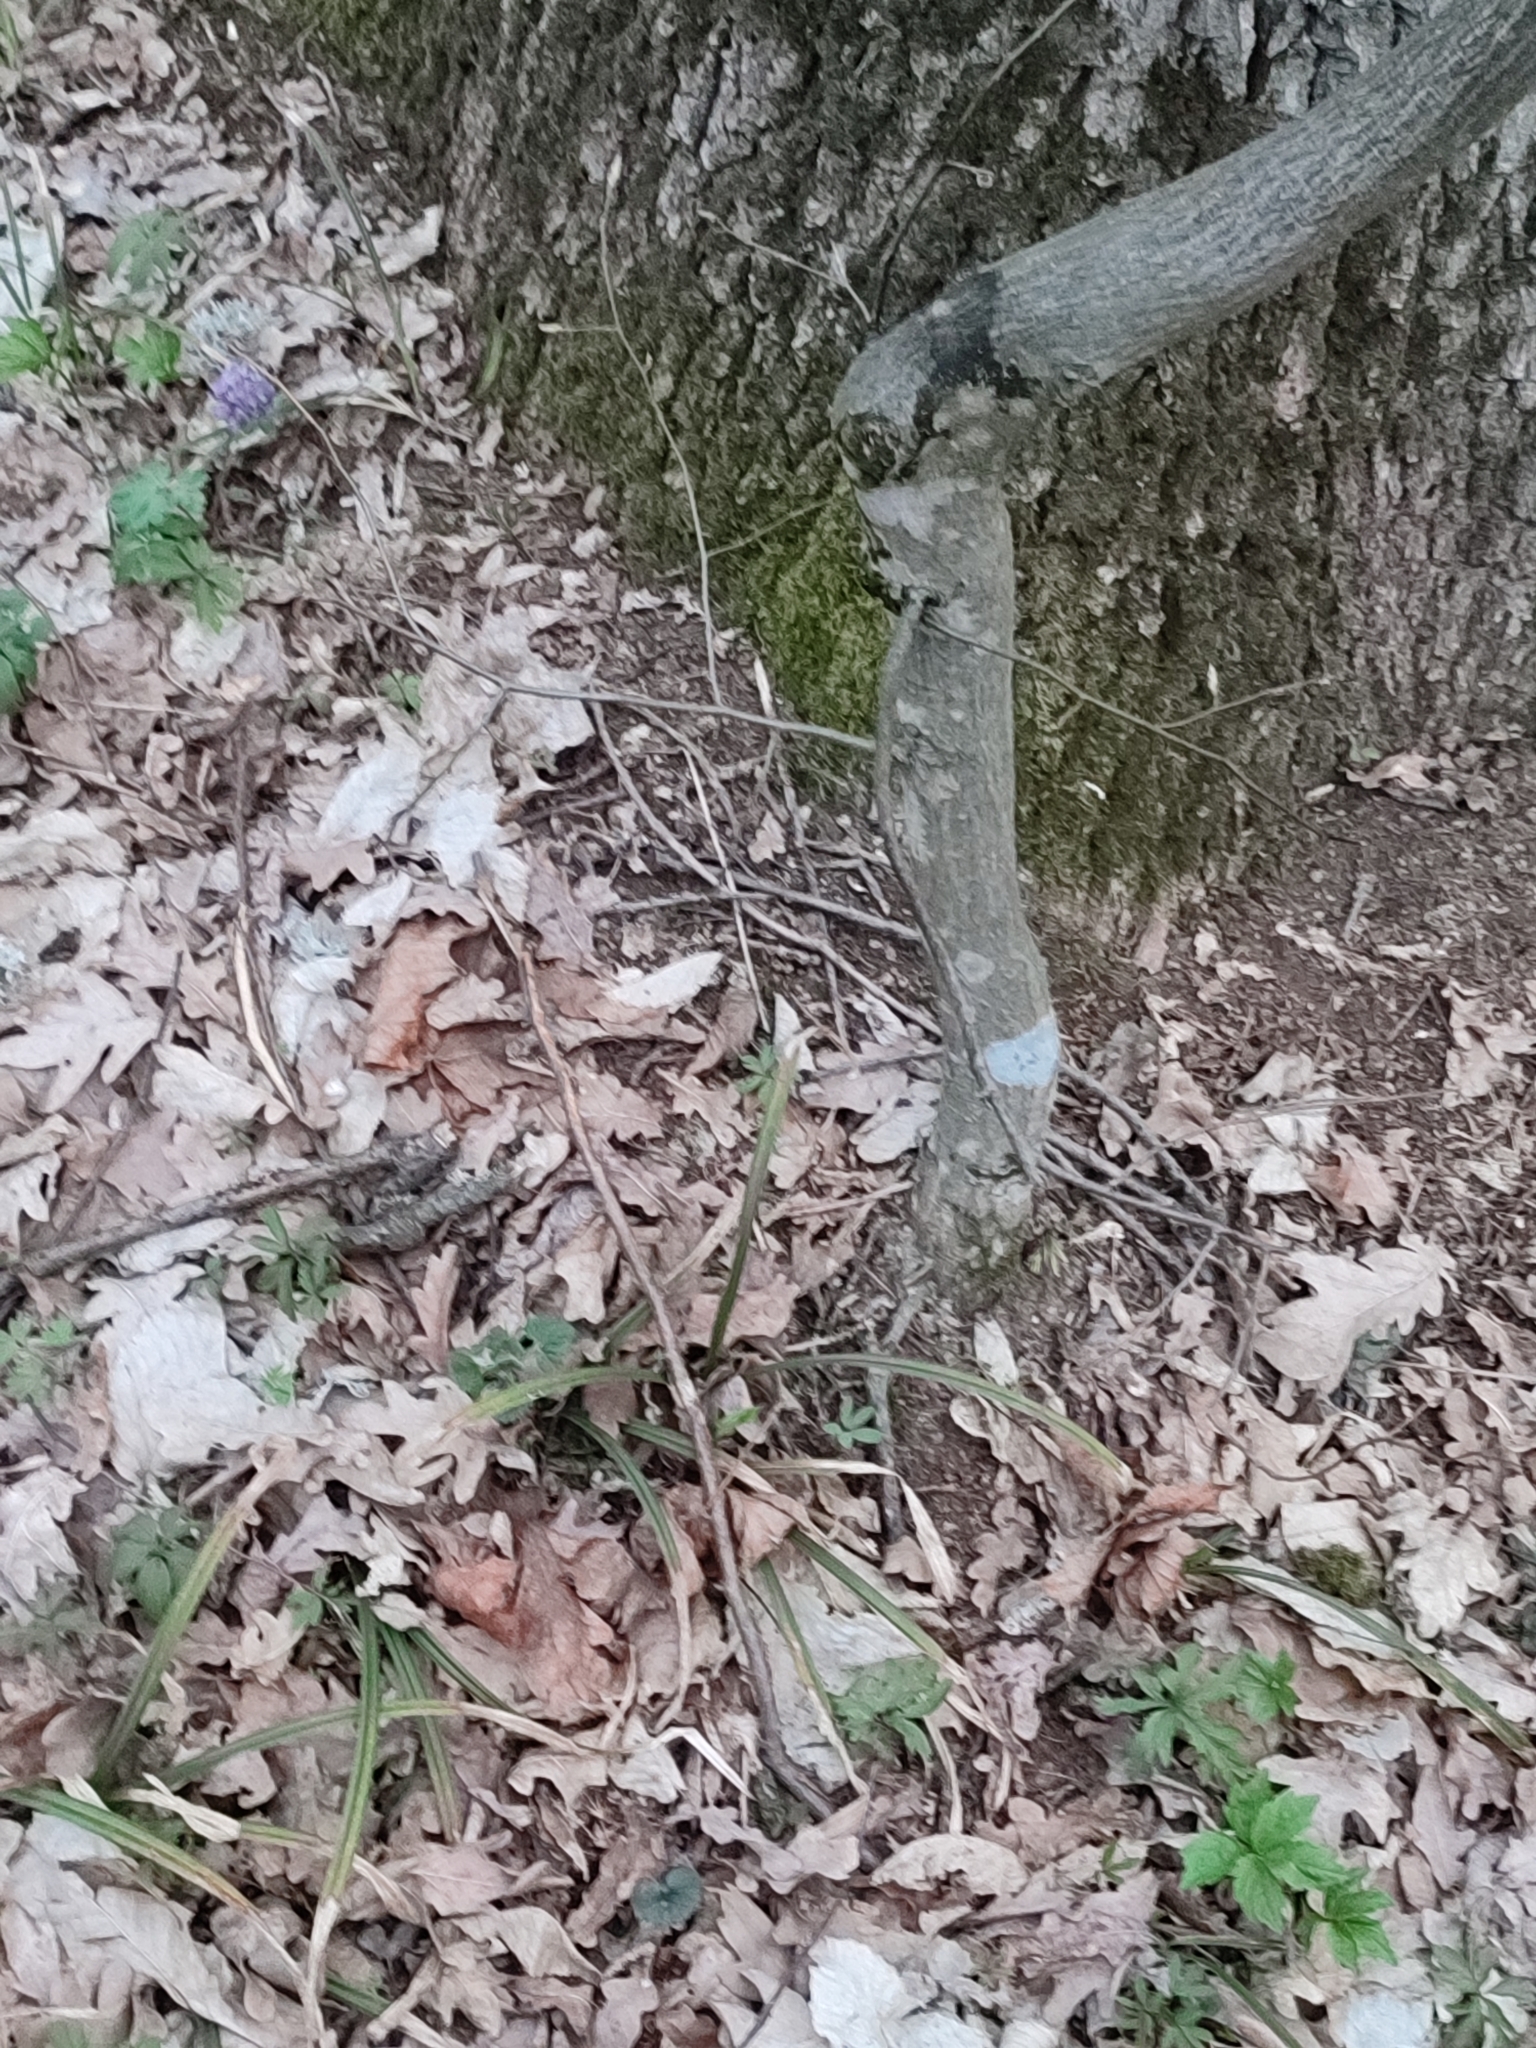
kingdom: Plantae
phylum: Tracheophyta
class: Magnoliopsida
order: Fagales
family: Fagaceae
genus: Quercus
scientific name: Quercus robur
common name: Pedunculate oak
